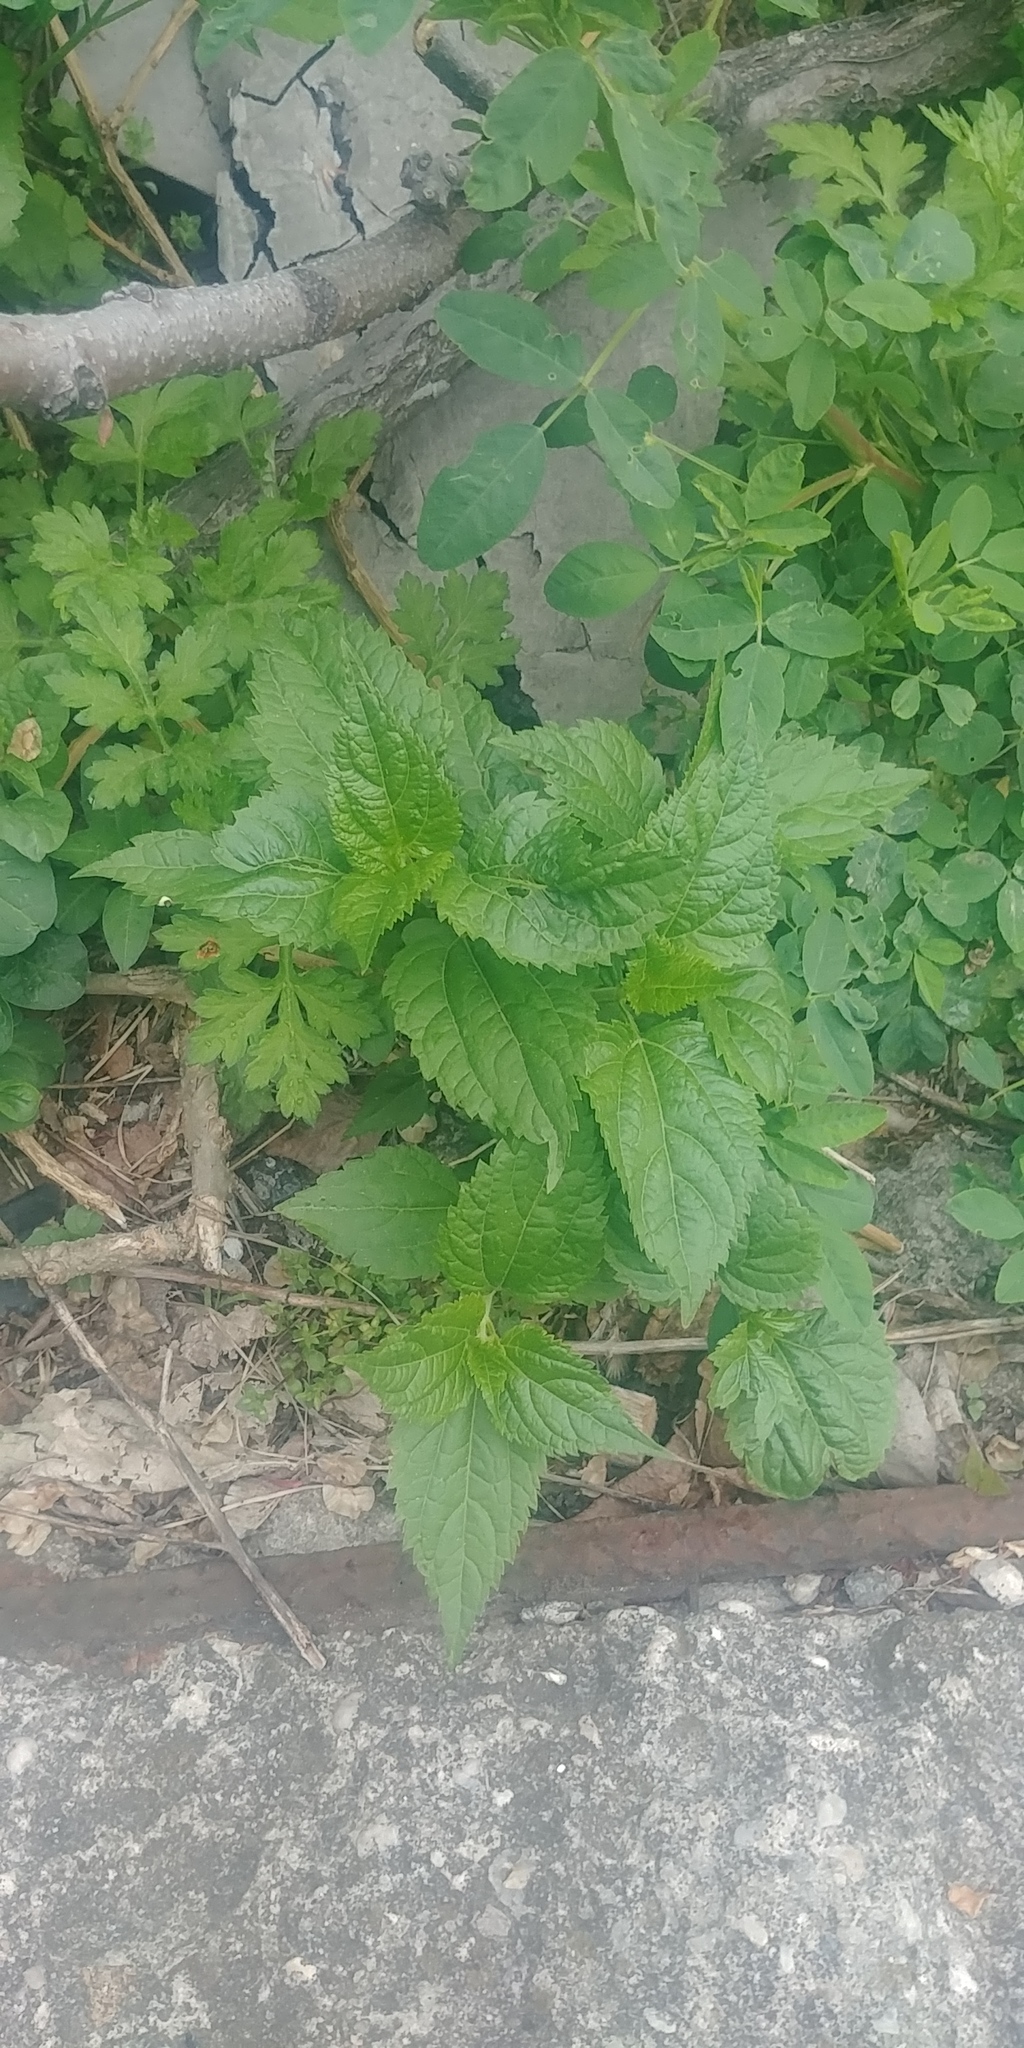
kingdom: Plantae
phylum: Tracheophyta
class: Magnoliopsida
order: Asterales
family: Asteraceae
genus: Ageratina
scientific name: Ageratina altissima
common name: White snakeroot
